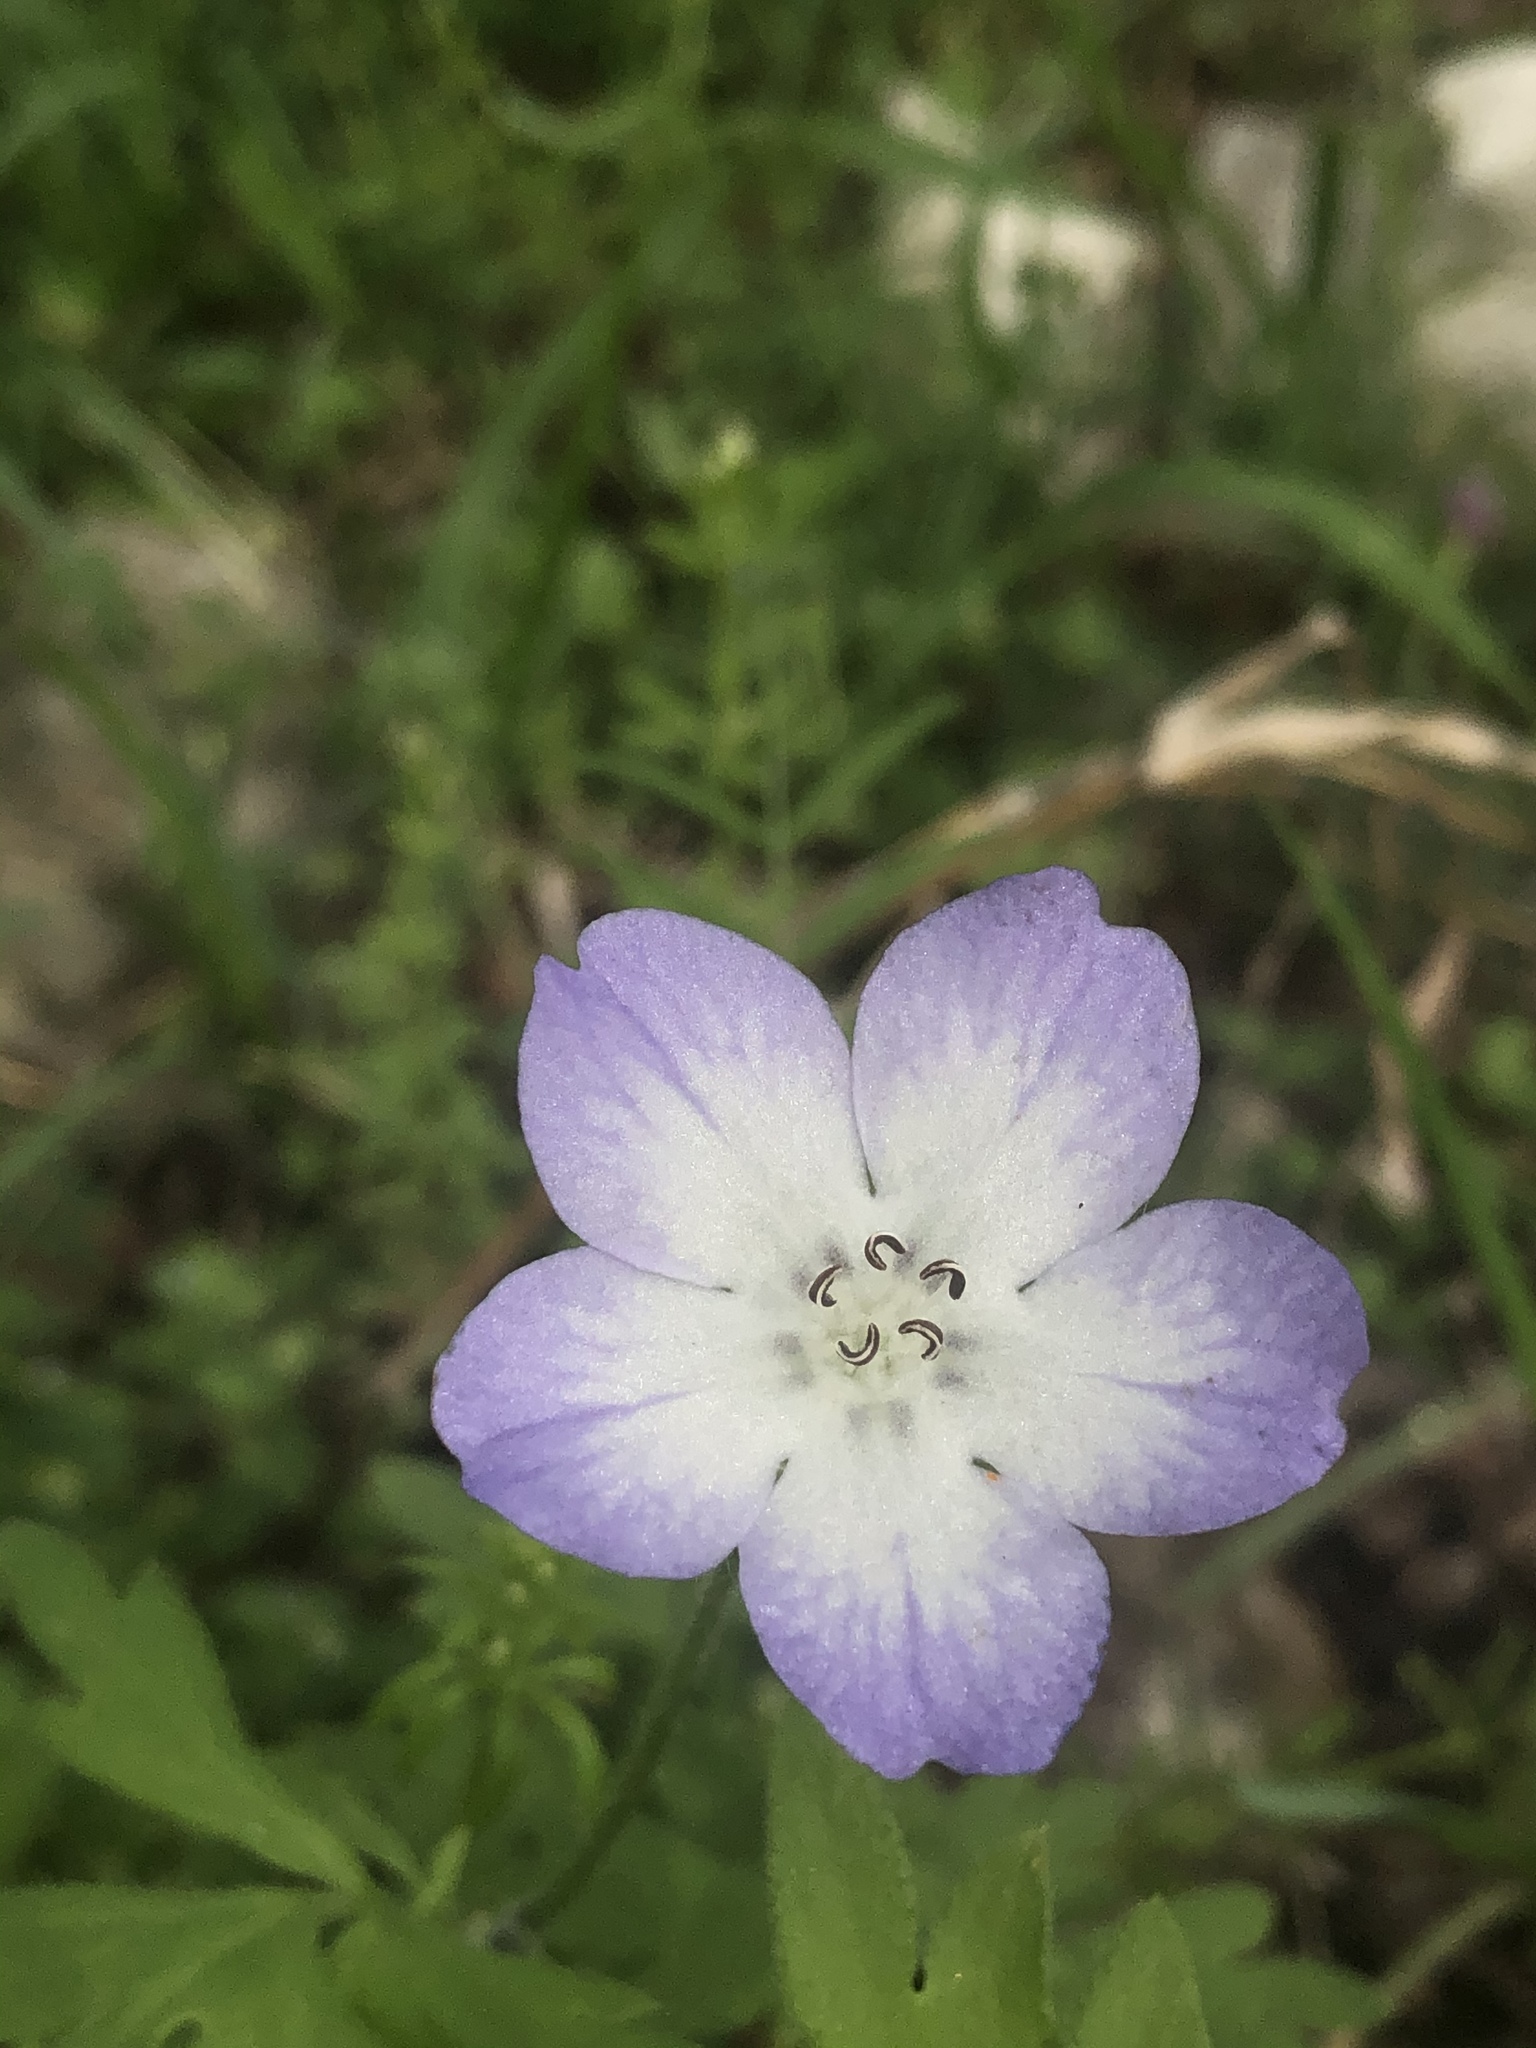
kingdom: Plantae
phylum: Tracheophyta
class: Magnoliopsida
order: Boraginales
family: Hydrophyllaceae
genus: Nemophila
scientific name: Nemophila phacelioides
